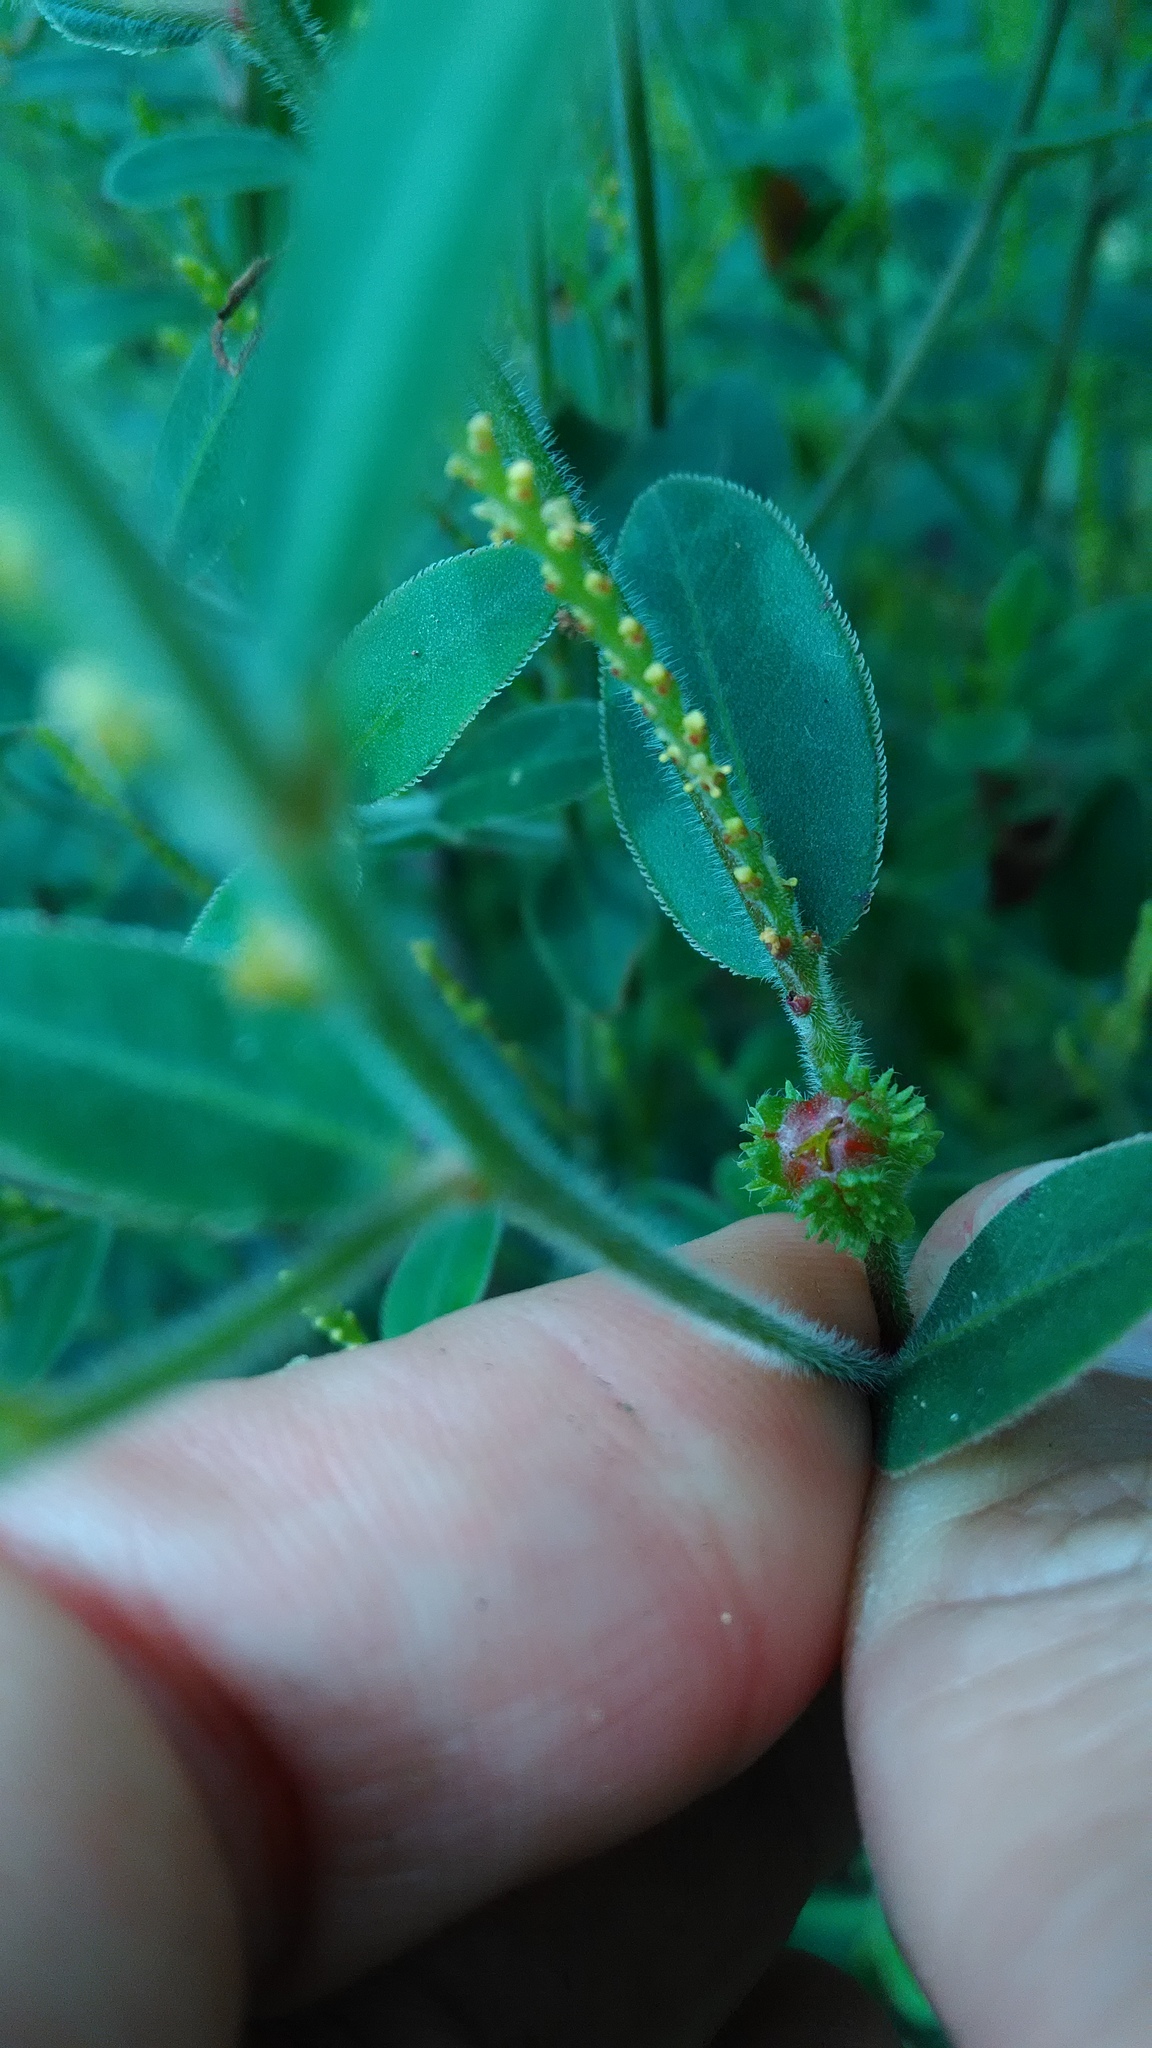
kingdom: Plantae
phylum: Tracheophyta
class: Magnoliopsida
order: Malpighiales
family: Euphorbiaceae
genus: Microstachys
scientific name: Microstachys serrulata
